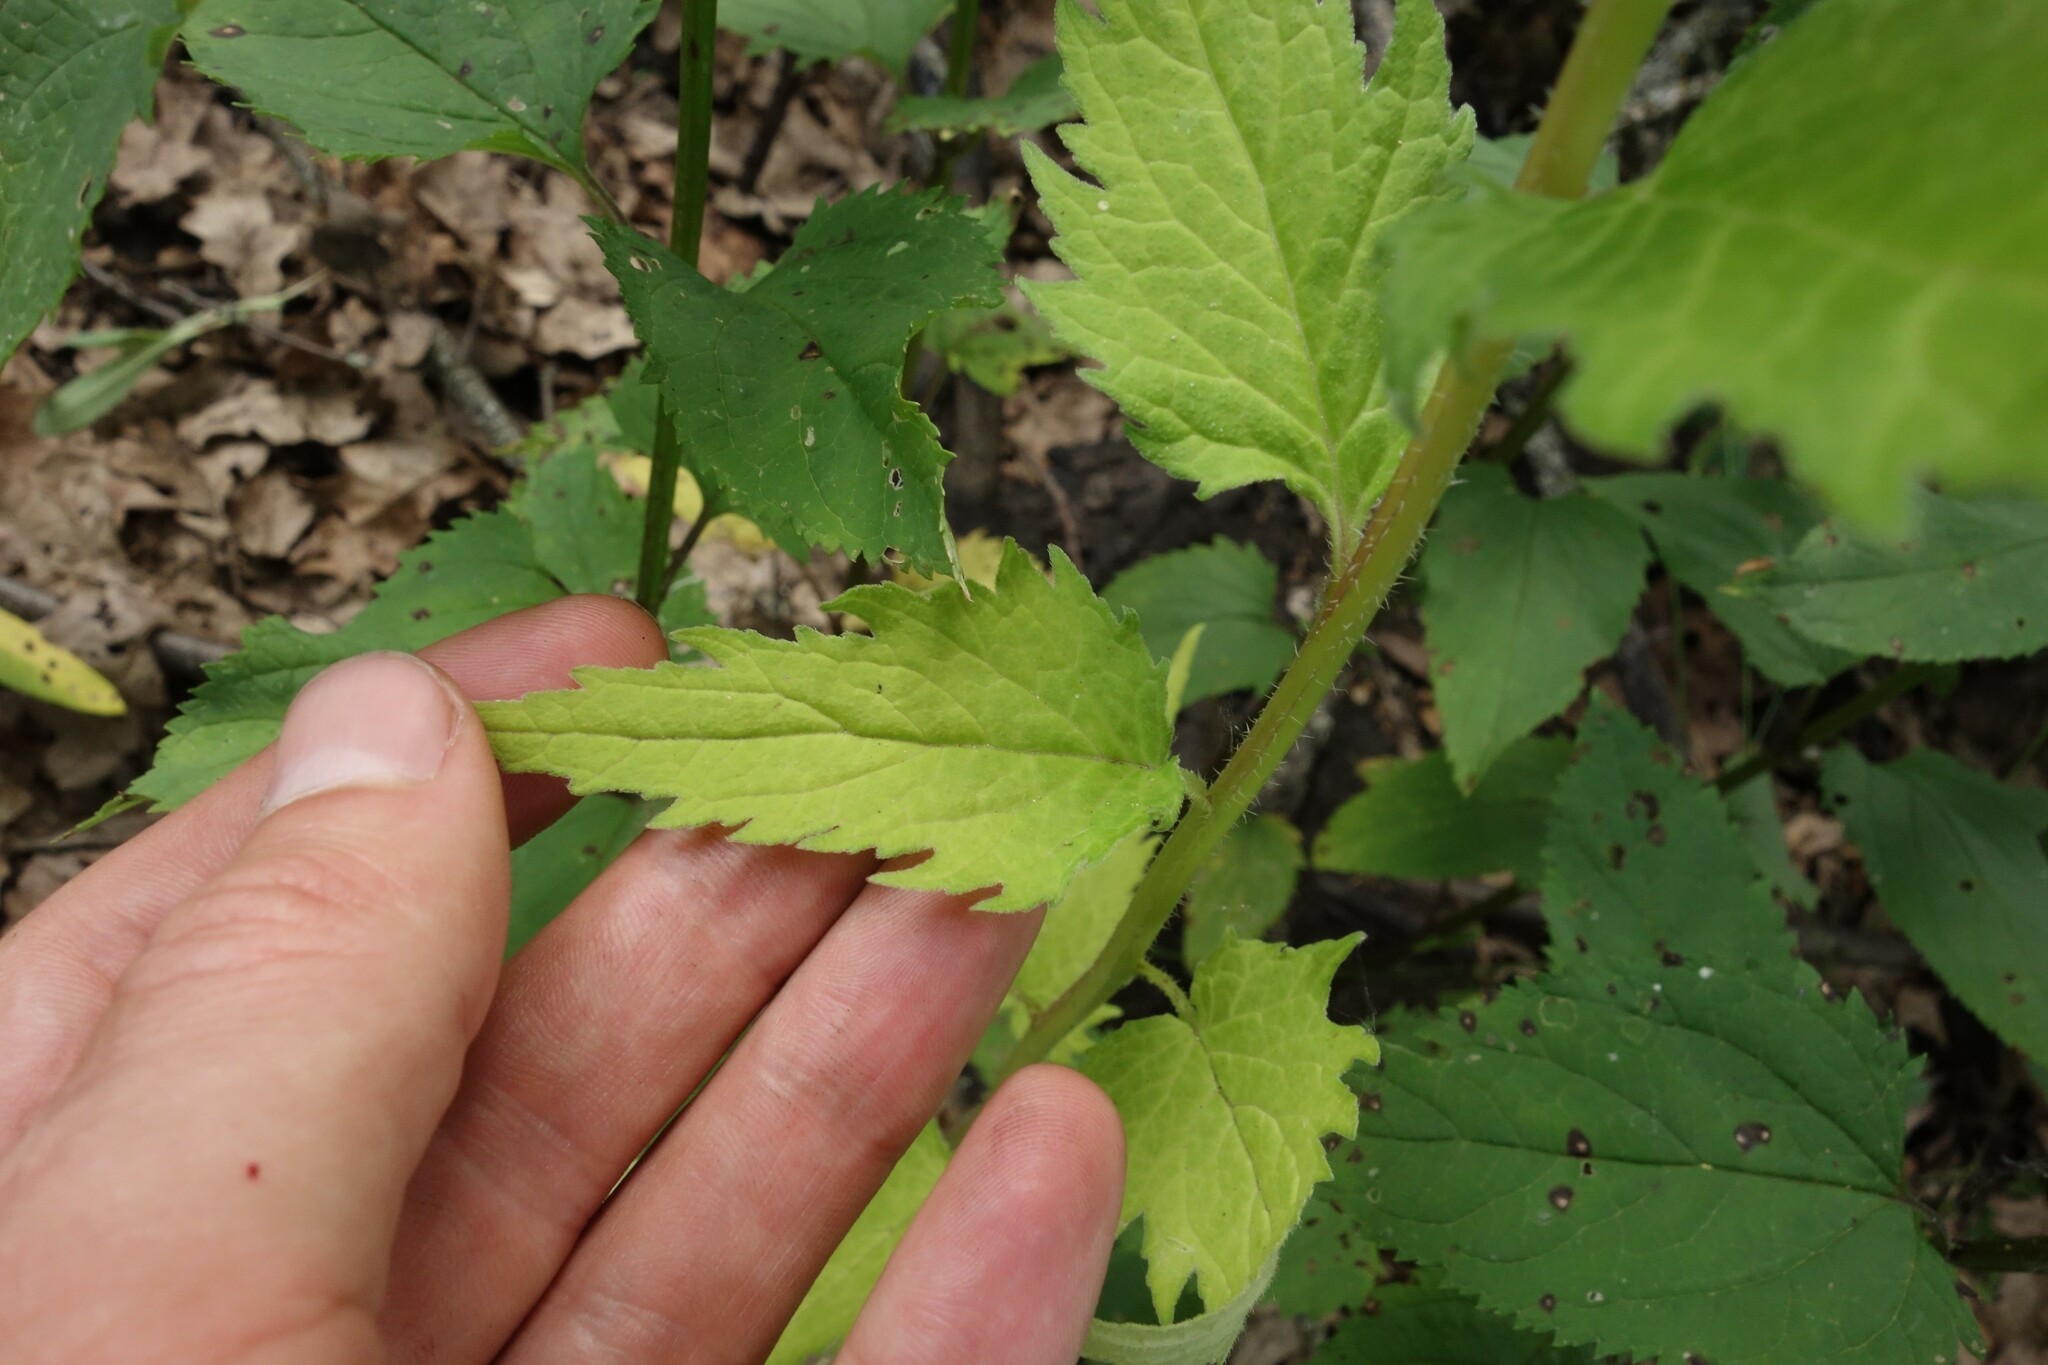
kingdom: Plantae
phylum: Tracheophyta
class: Magnoliopsida
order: Asterales
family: Campanulaceae
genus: Campanula
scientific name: Campanula trachelium
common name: Nettle-leaved bellflower
